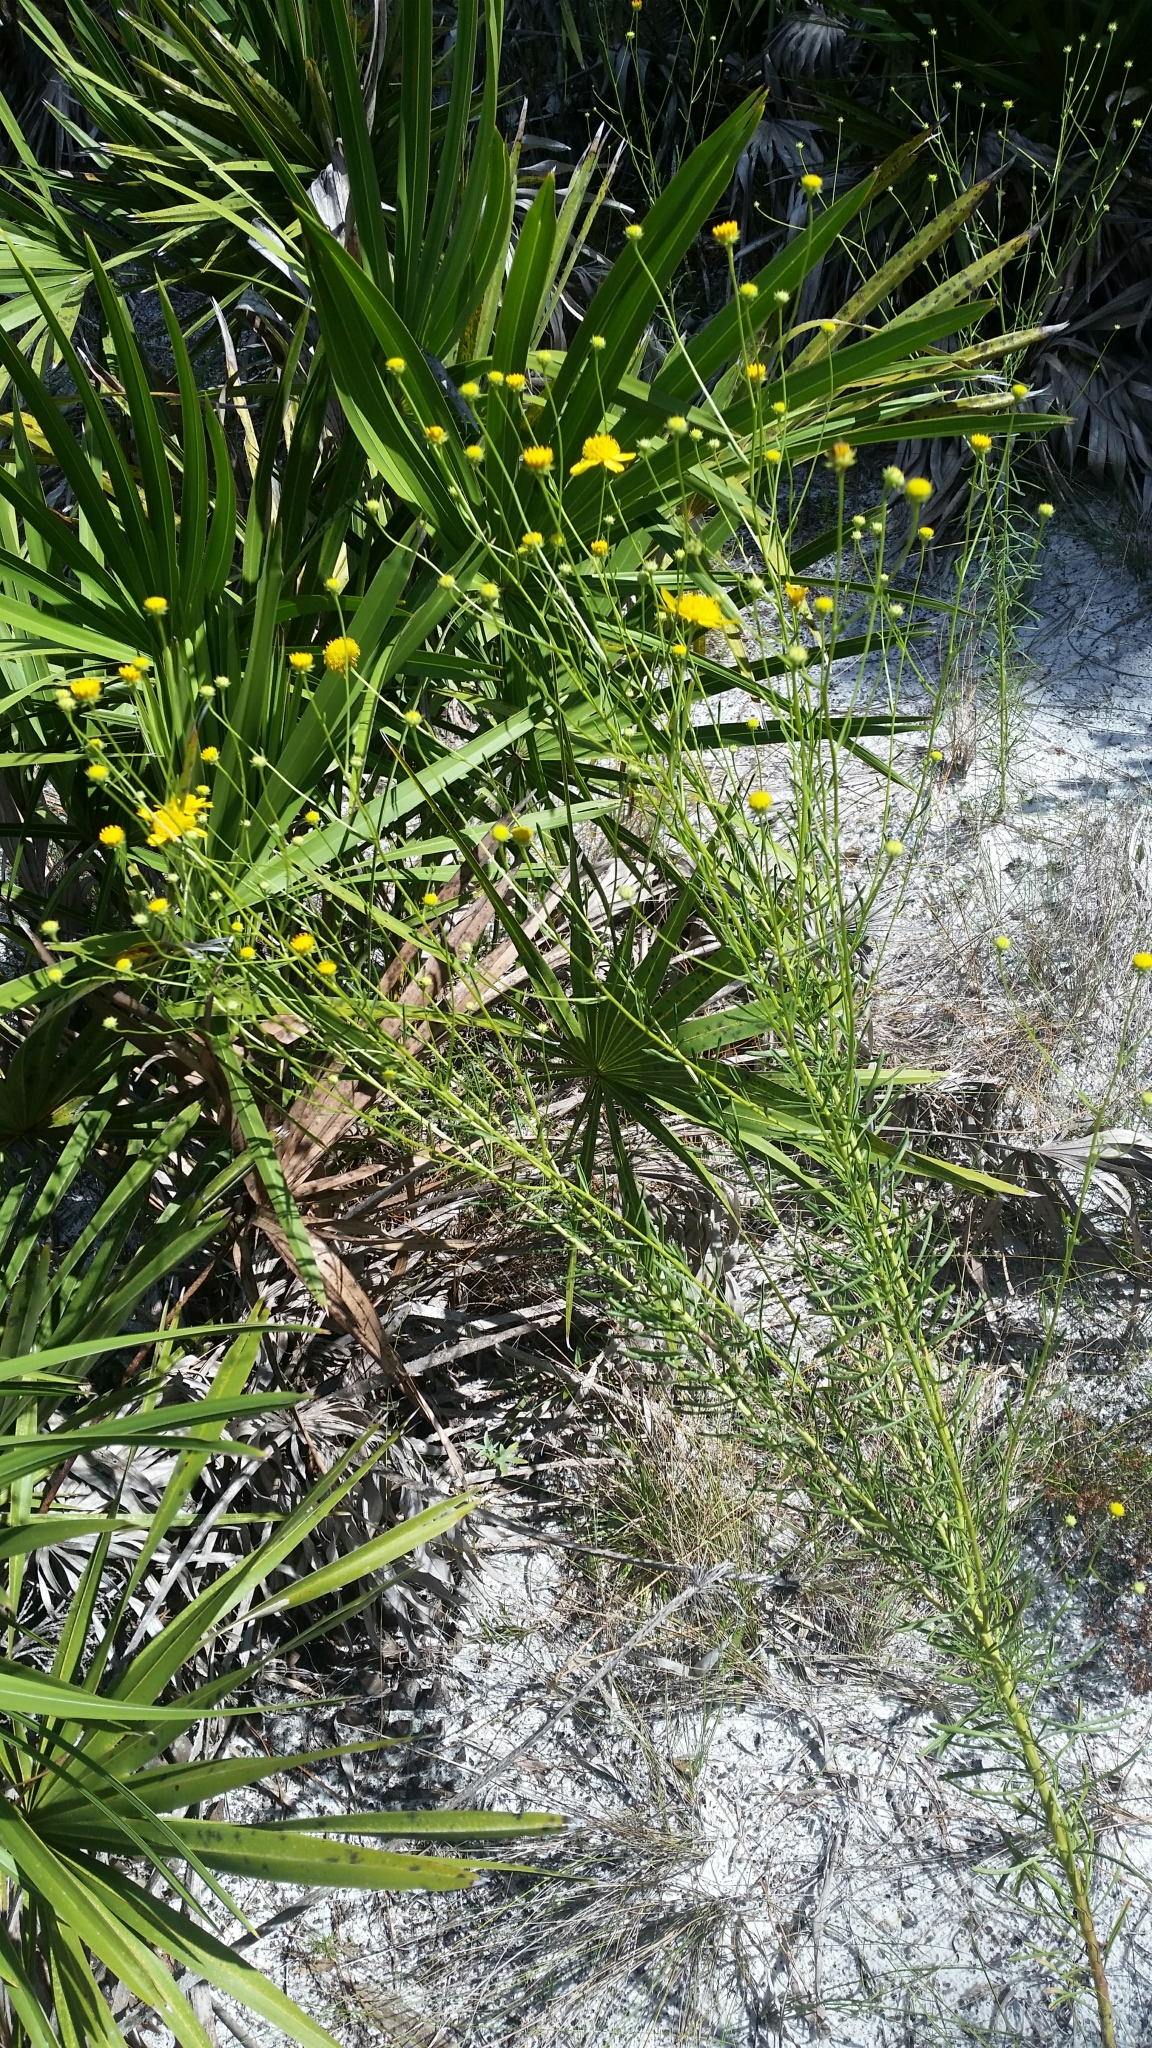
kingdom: Plantae
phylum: Tracheophyta
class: Magnoliopsida
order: Asterales
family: Asteraceae
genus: Balduina
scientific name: Balduina angustifolia
